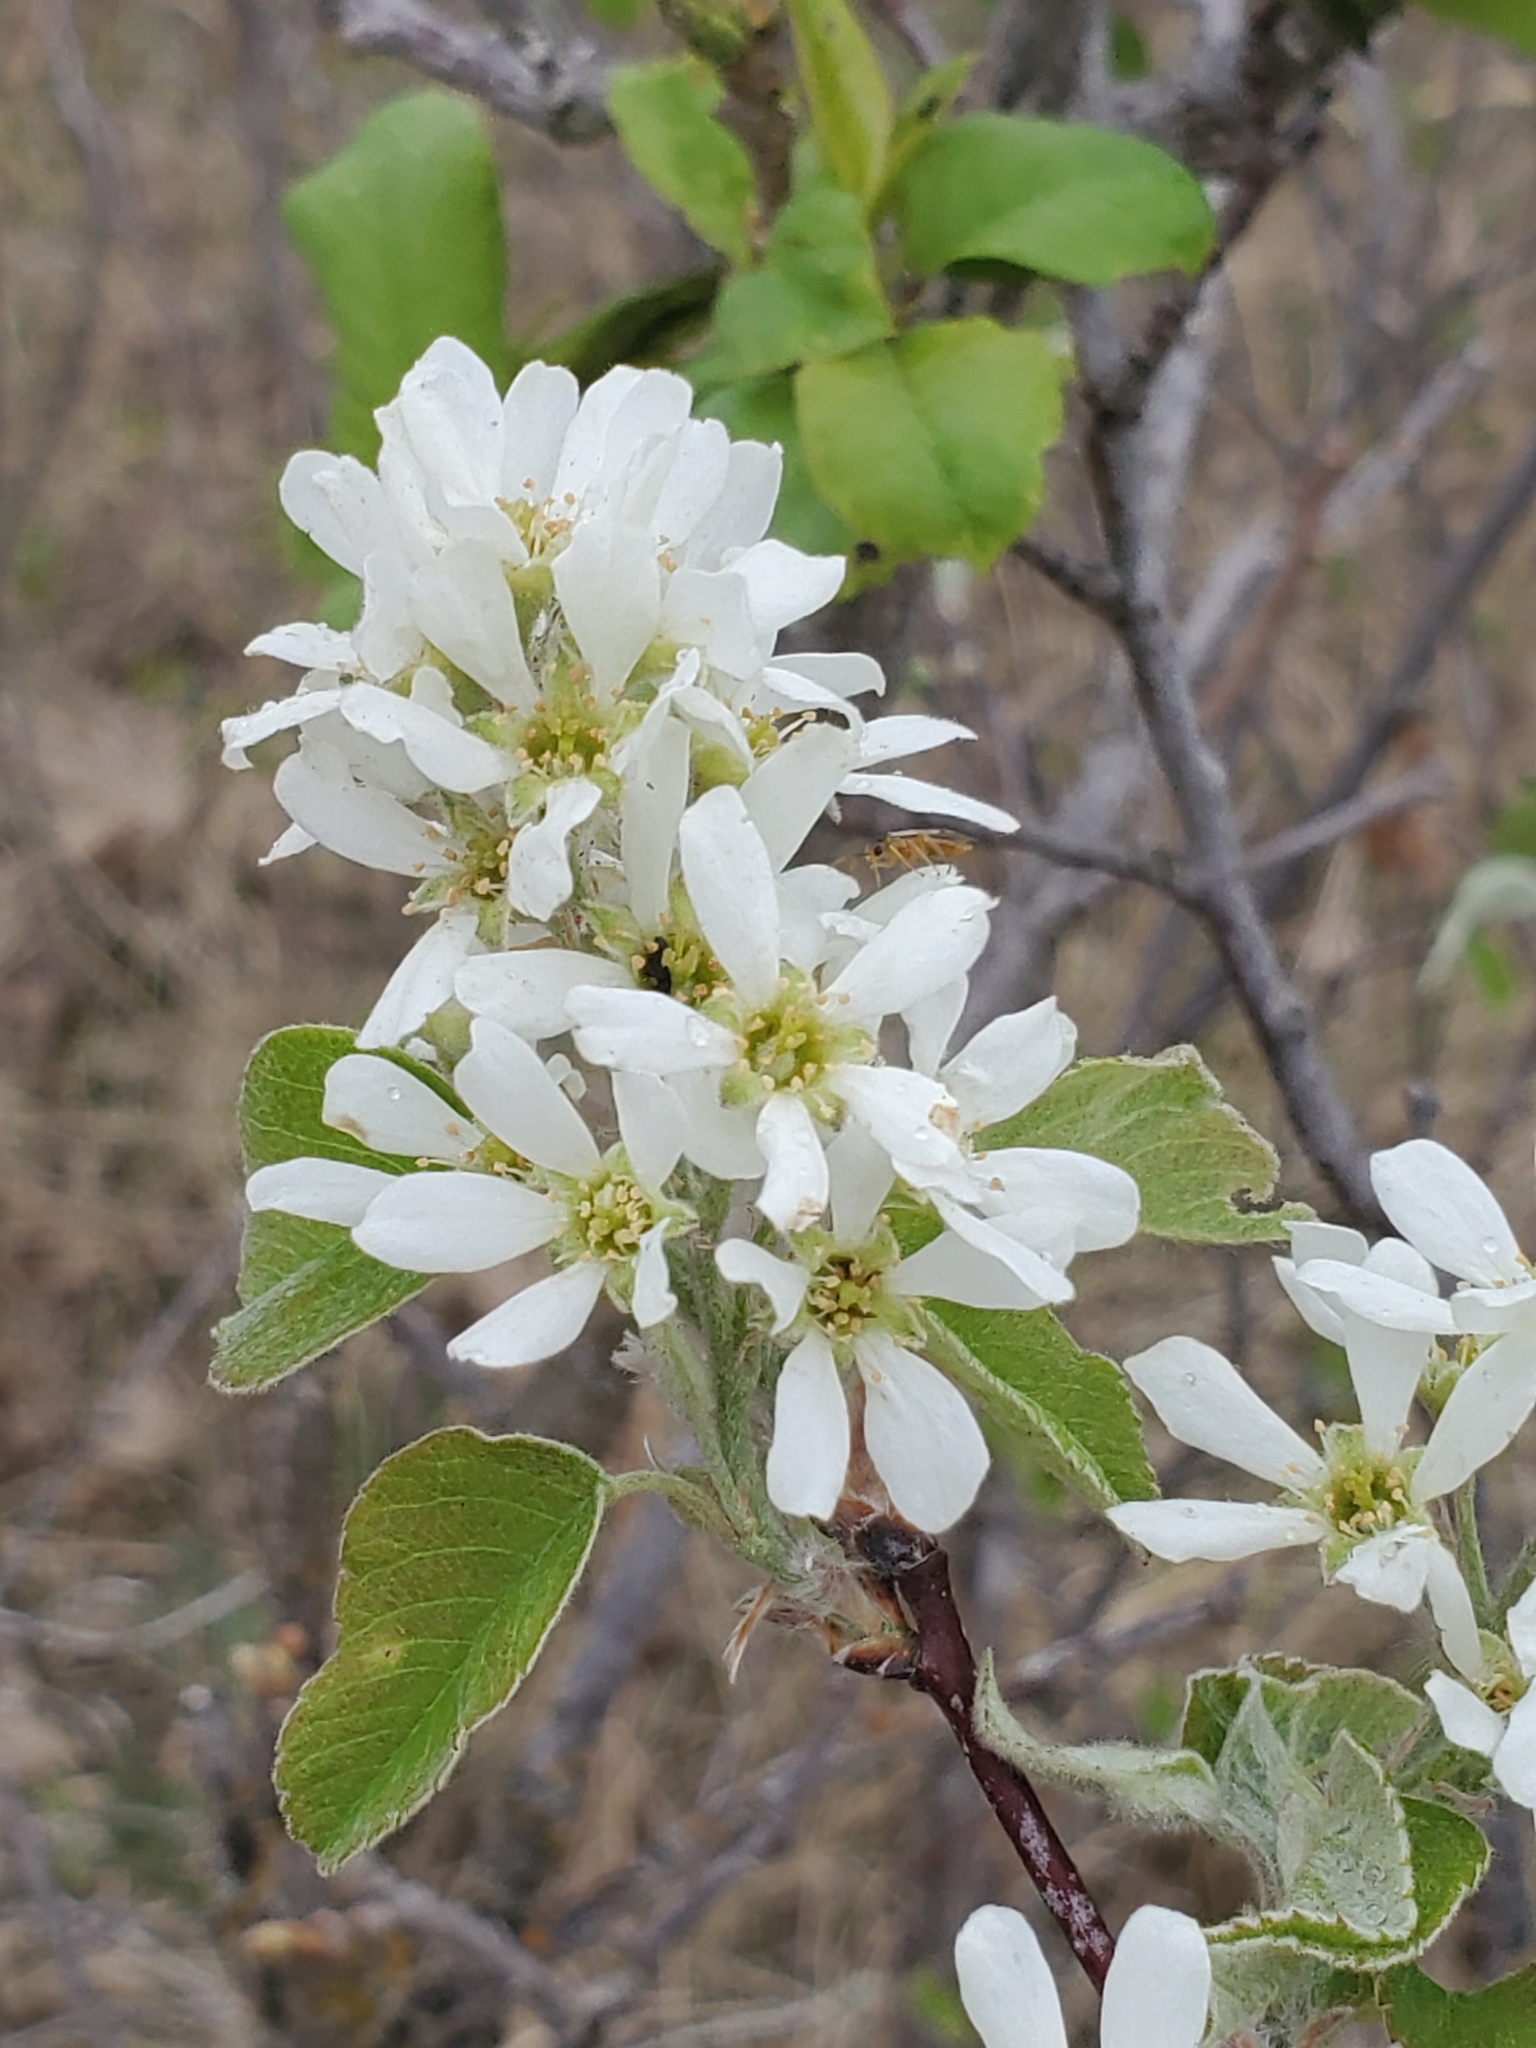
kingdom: Plantae
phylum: Tracheophyta
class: Magnoliopsida
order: Rosales
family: Rosaceae
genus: Amelanchier
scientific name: Amelanchier alnifolia
